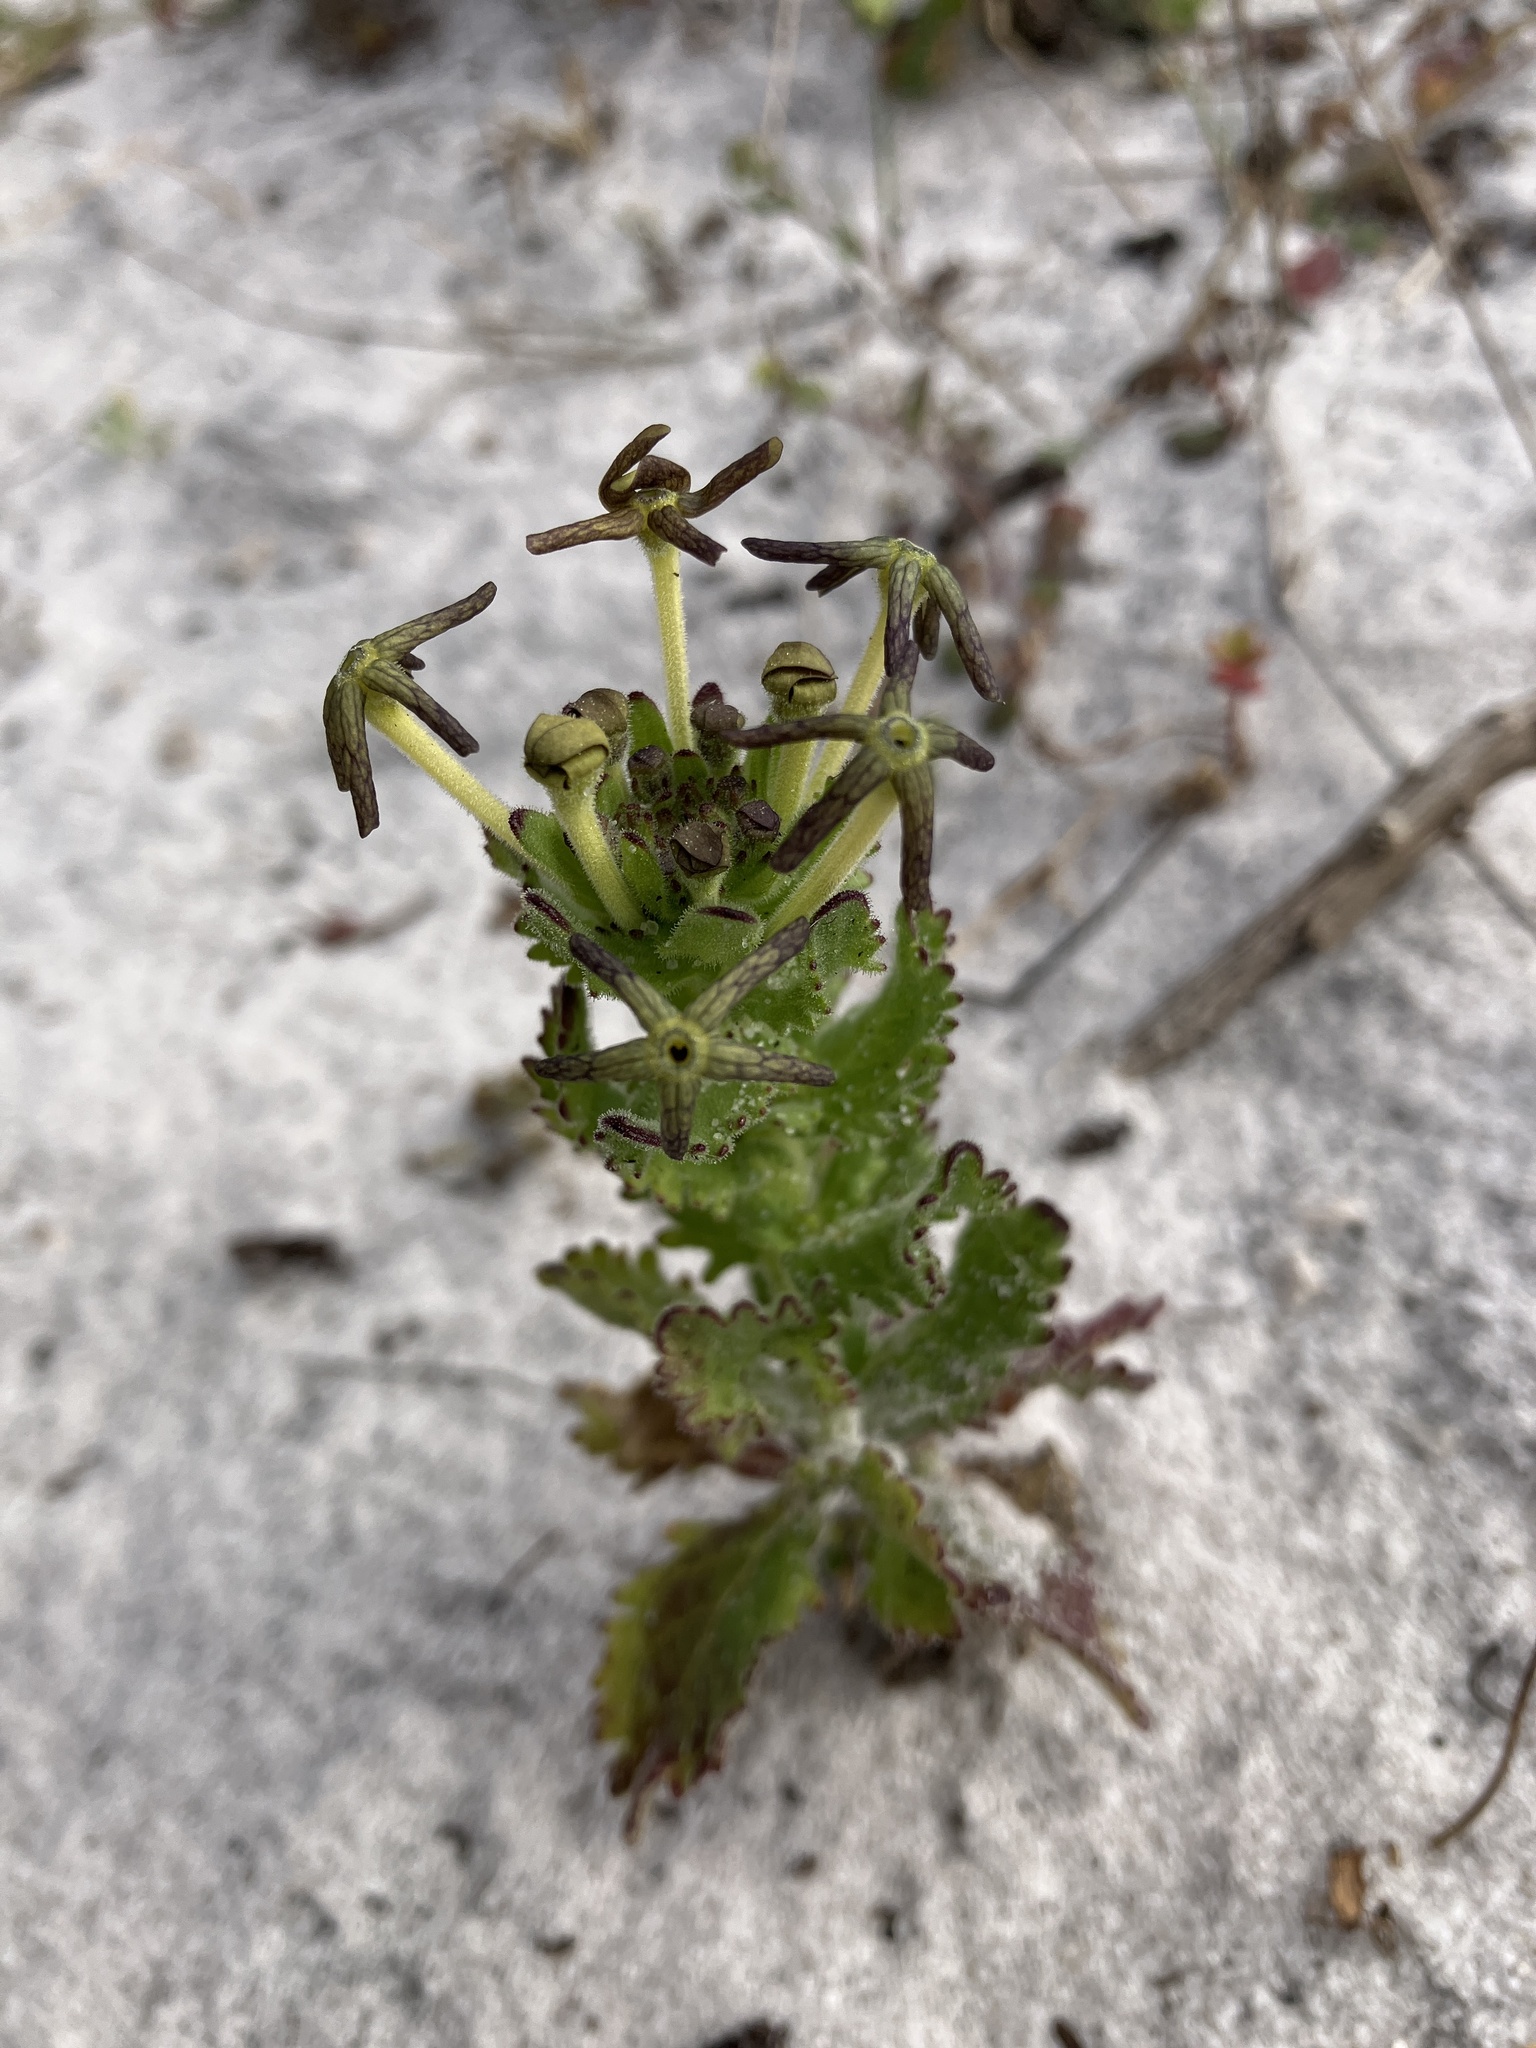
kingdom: Plantae
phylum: Tracheophyta
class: Magnoliopsida
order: Lamiales
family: Scrophulariaceae
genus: Lyperia
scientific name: Lyperia tristis
